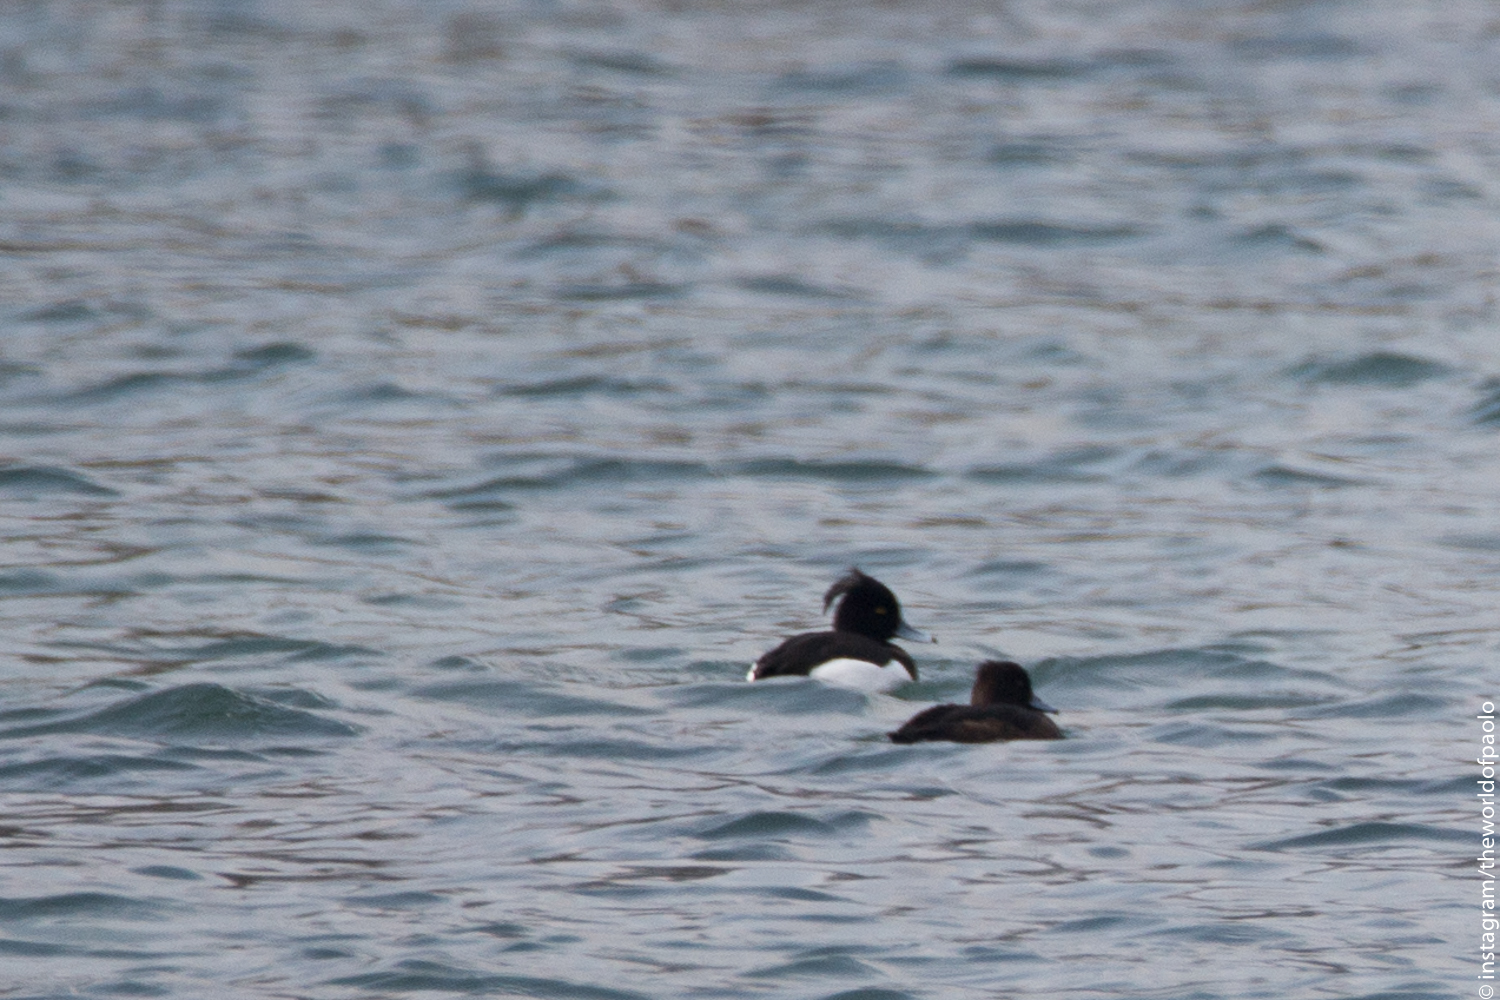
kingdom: Animalia
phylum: Chordata
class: Aves
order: Anseriformes
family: Anatidae
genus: Aythya
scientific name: Aythya fuligula
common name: Tufted duck
